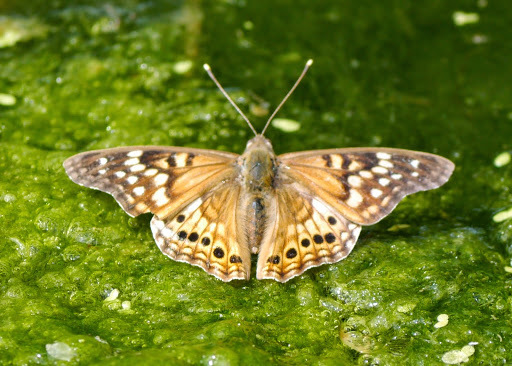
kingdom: Animalia
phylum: Arthropoda
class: Insecta
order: Lepidoptera
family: Nymphalidae
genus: Asterocampa
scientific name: Asterocampa clyton
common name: Tawny emperor
